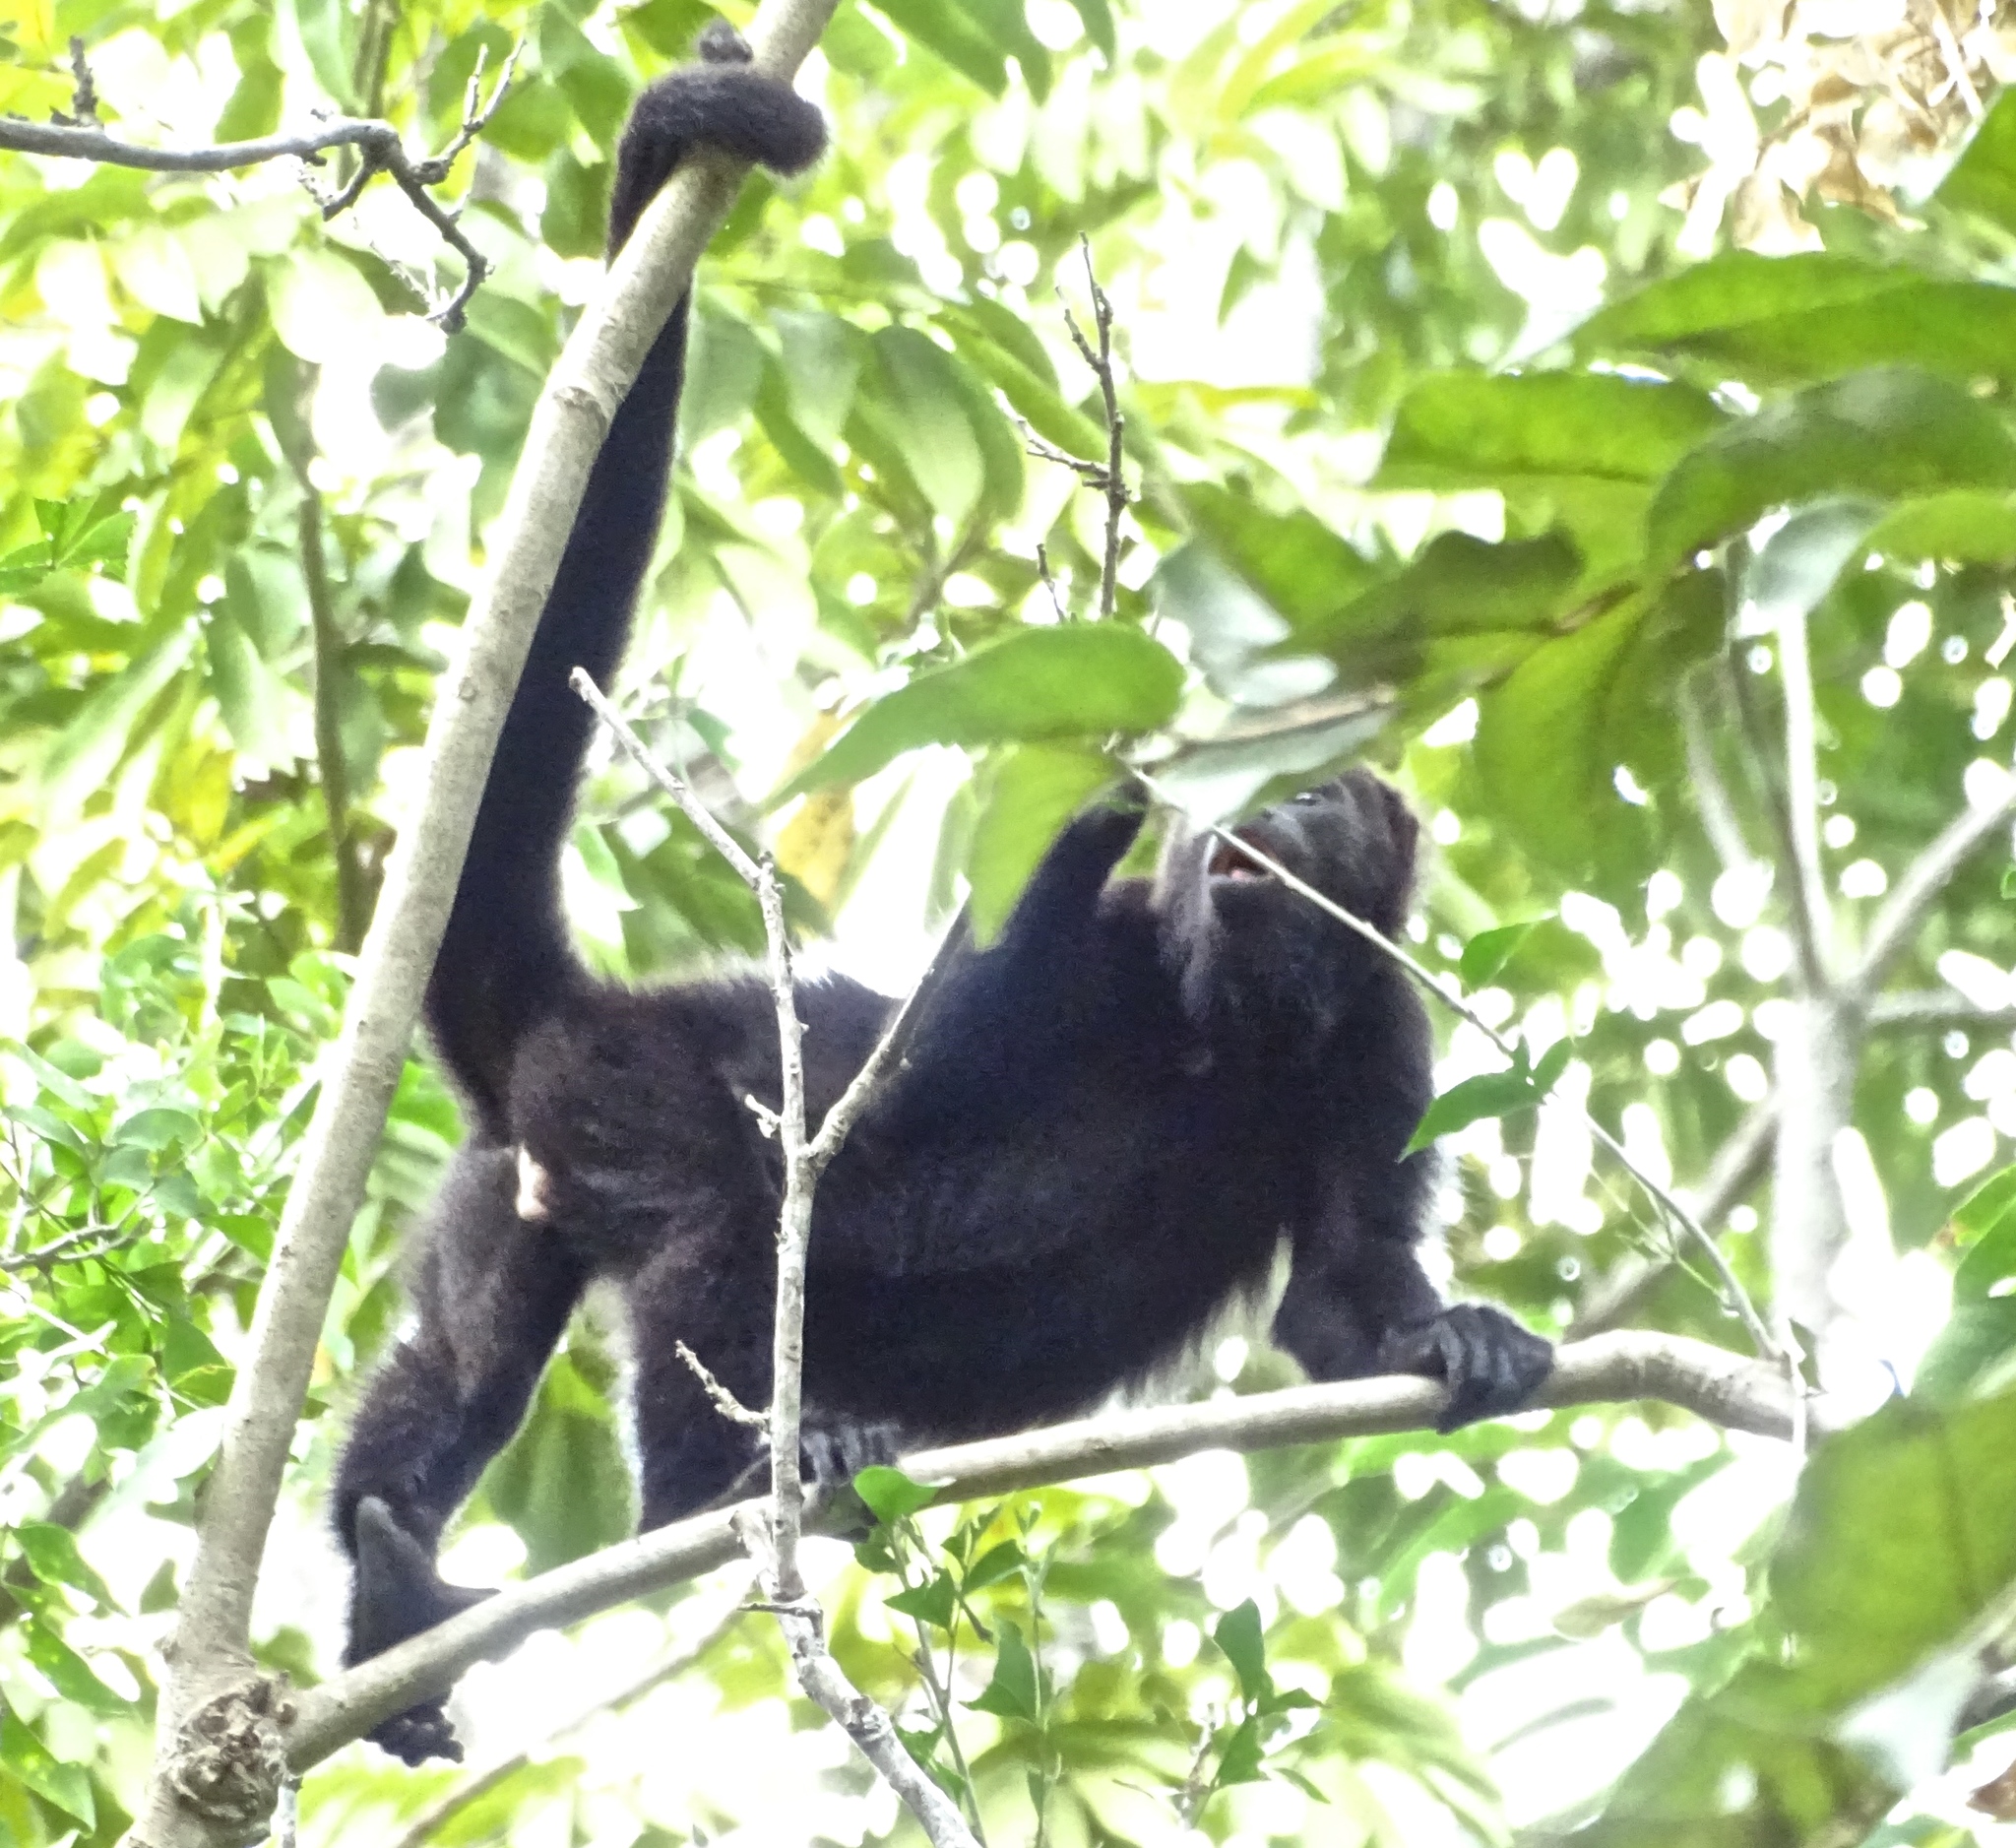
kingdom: Animalia
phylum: Chordata
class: Mammalia
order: Primates
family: Atelidae
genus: Alouatta
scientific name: Alouatta pigra
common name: Guatemalan black howler
